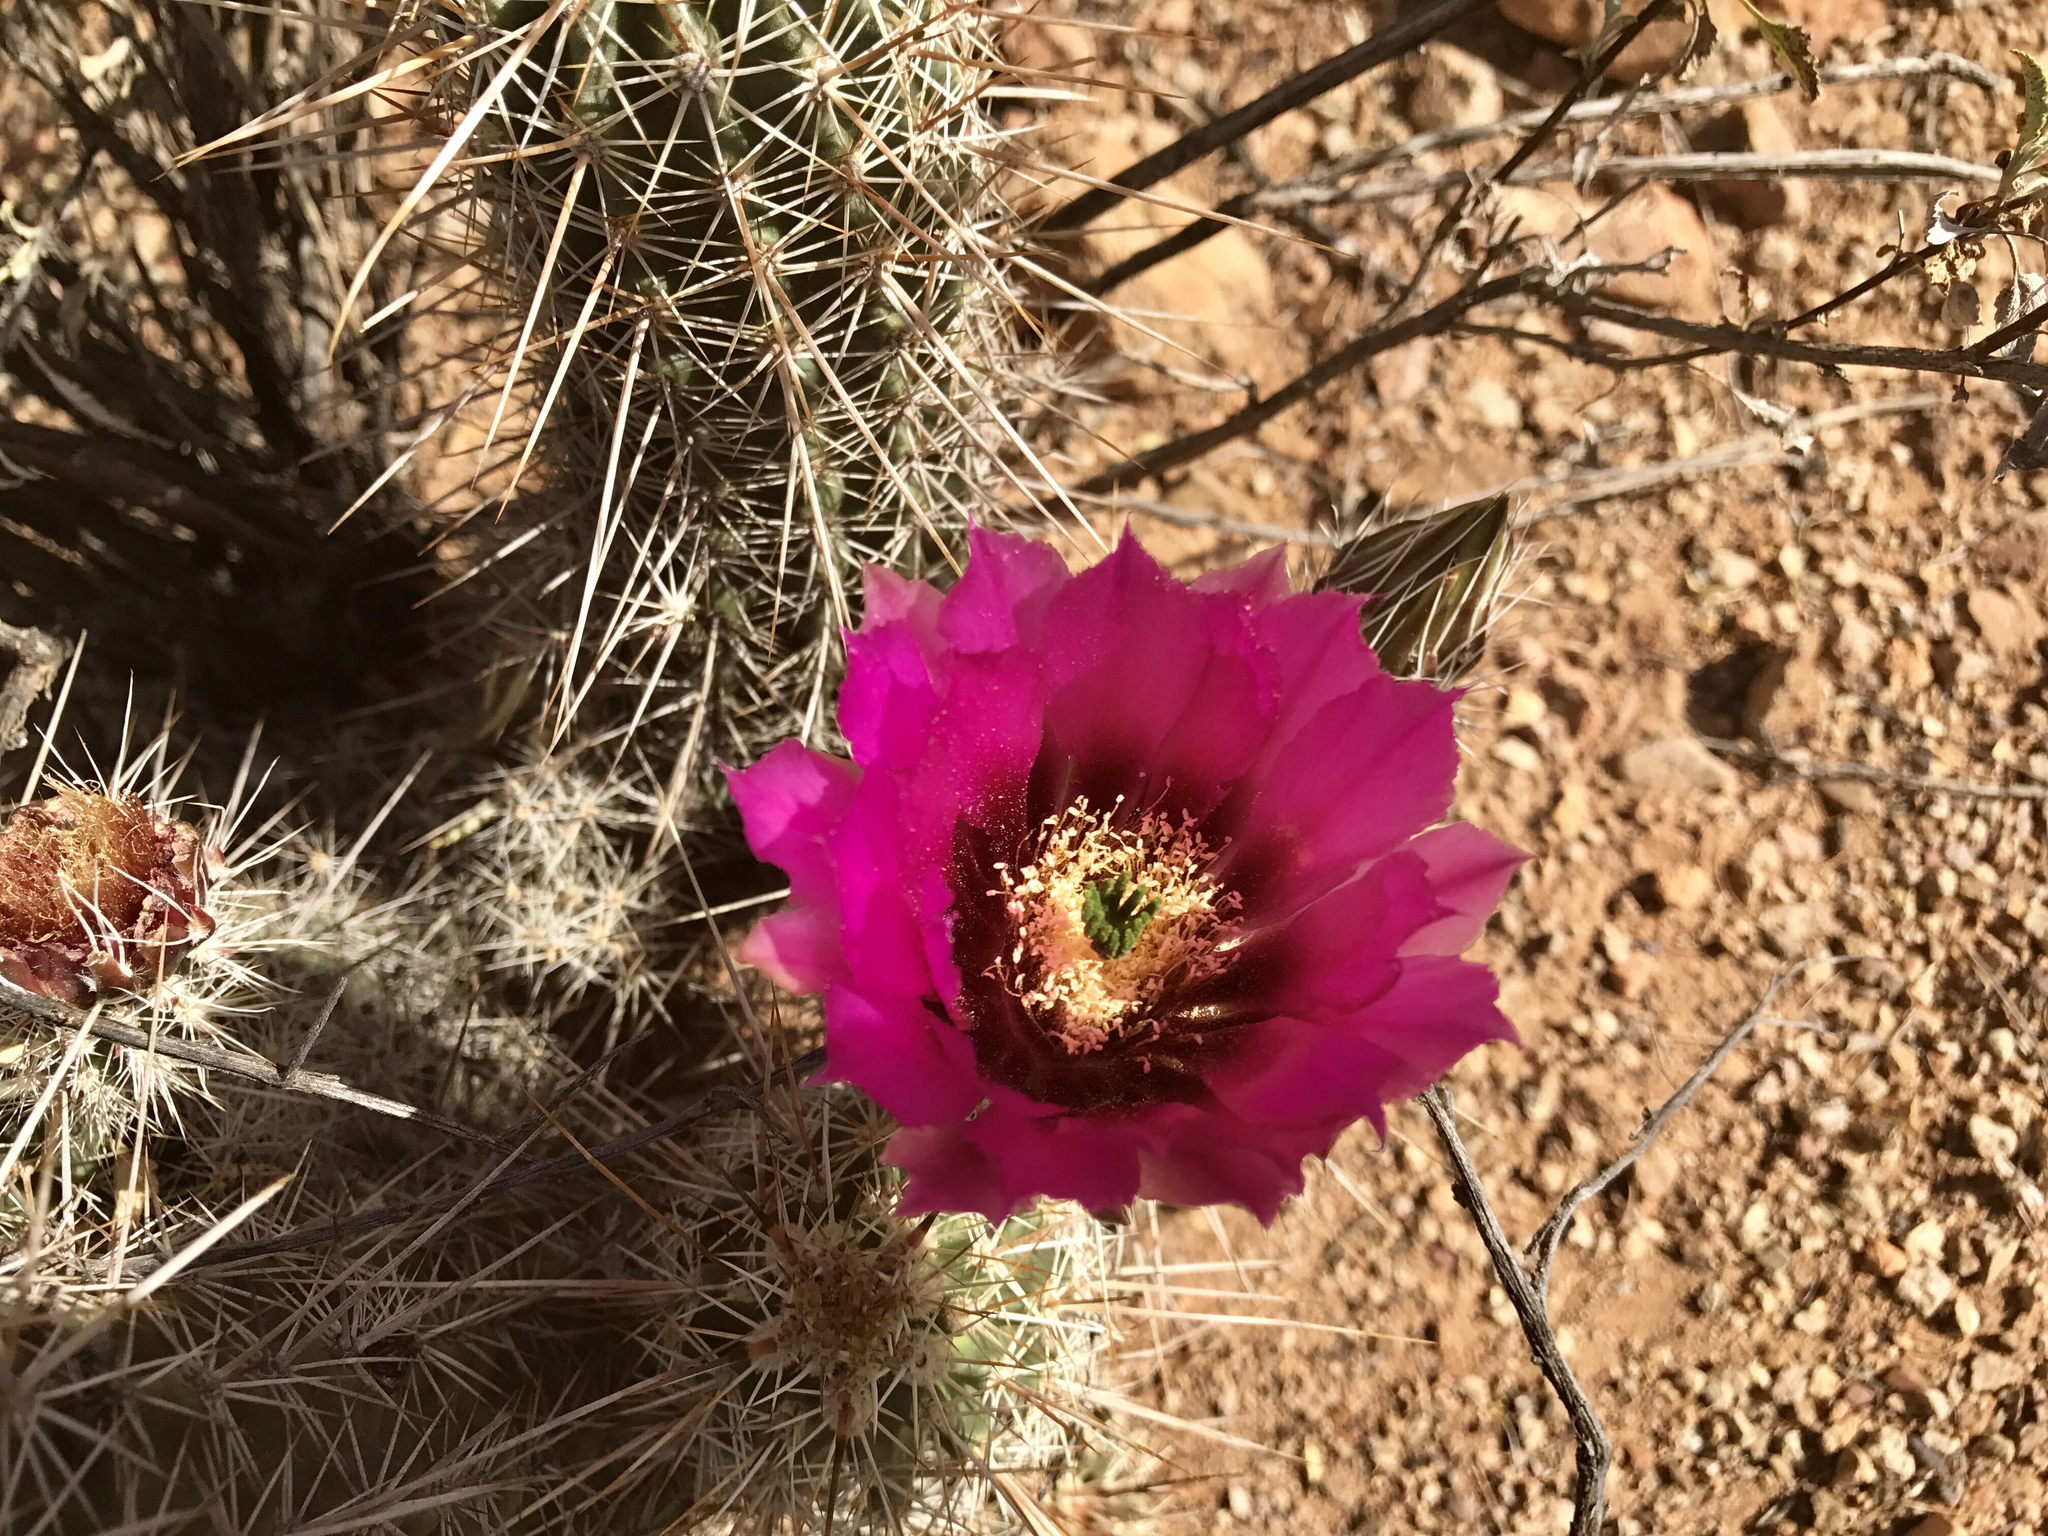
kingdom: Plantae
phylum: Tracheophyta
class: Magnoliopsida
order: Caryophyllales
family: Cactaceae
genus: Echinocereus
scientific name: Echinocereus fasciculatus
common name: Bundle hedgehog
